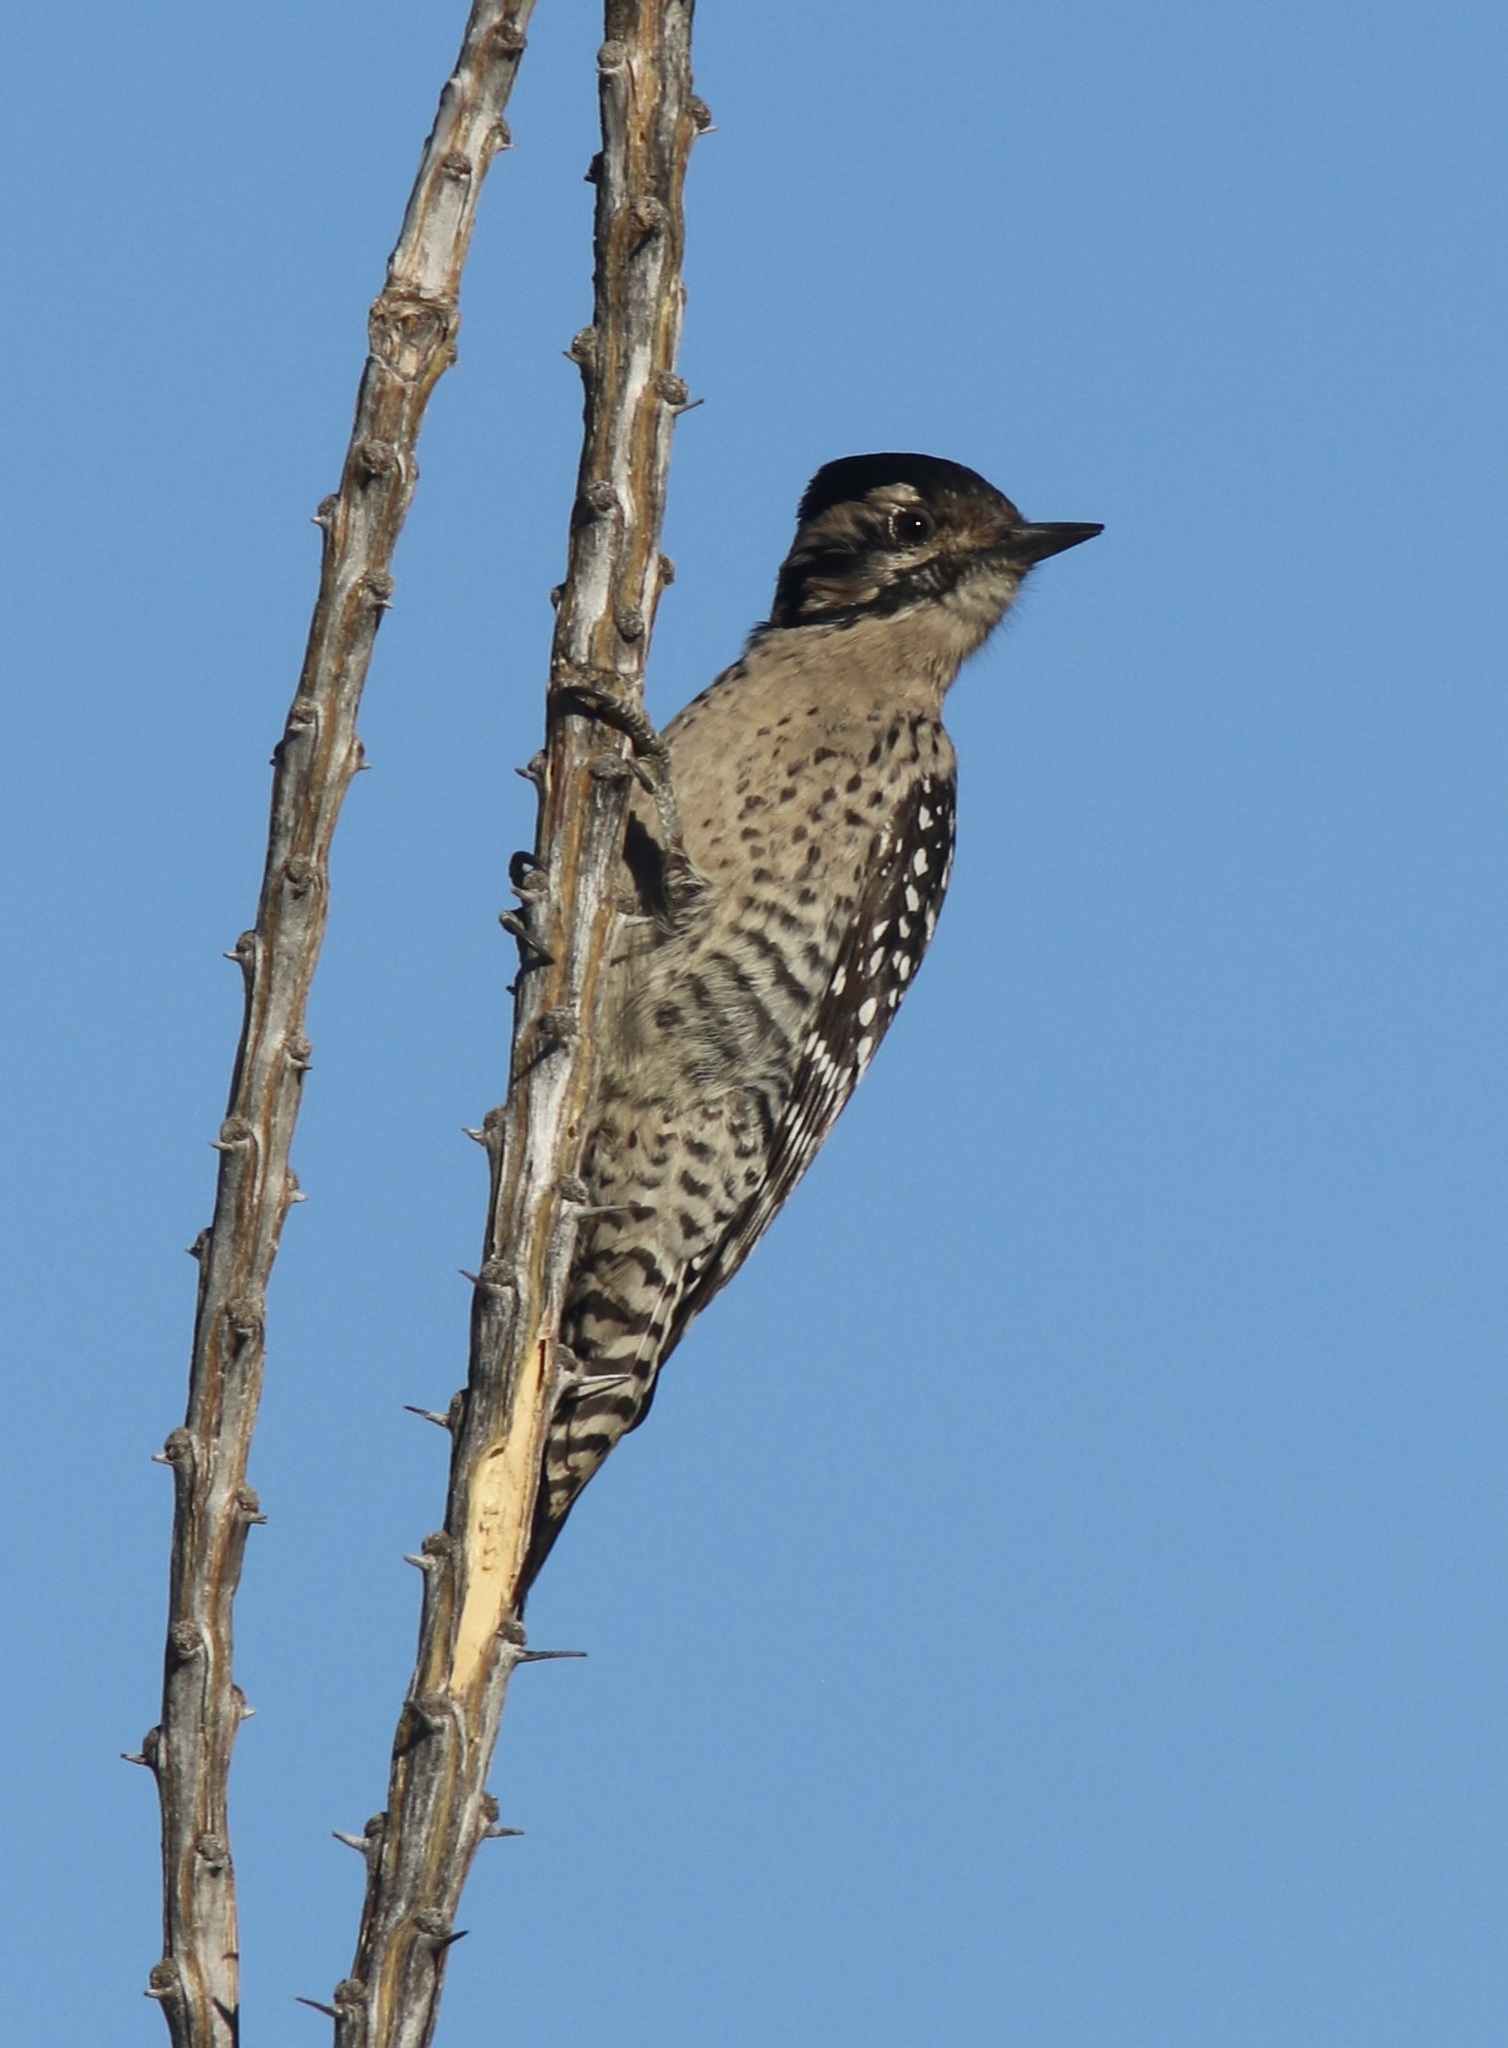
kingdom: Animalia
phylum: Chordata
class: Aves
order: Piciformes
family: Picidae
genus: Dryobates
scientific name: Dryobates scalaris
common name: Ladder-backed woodpecker
